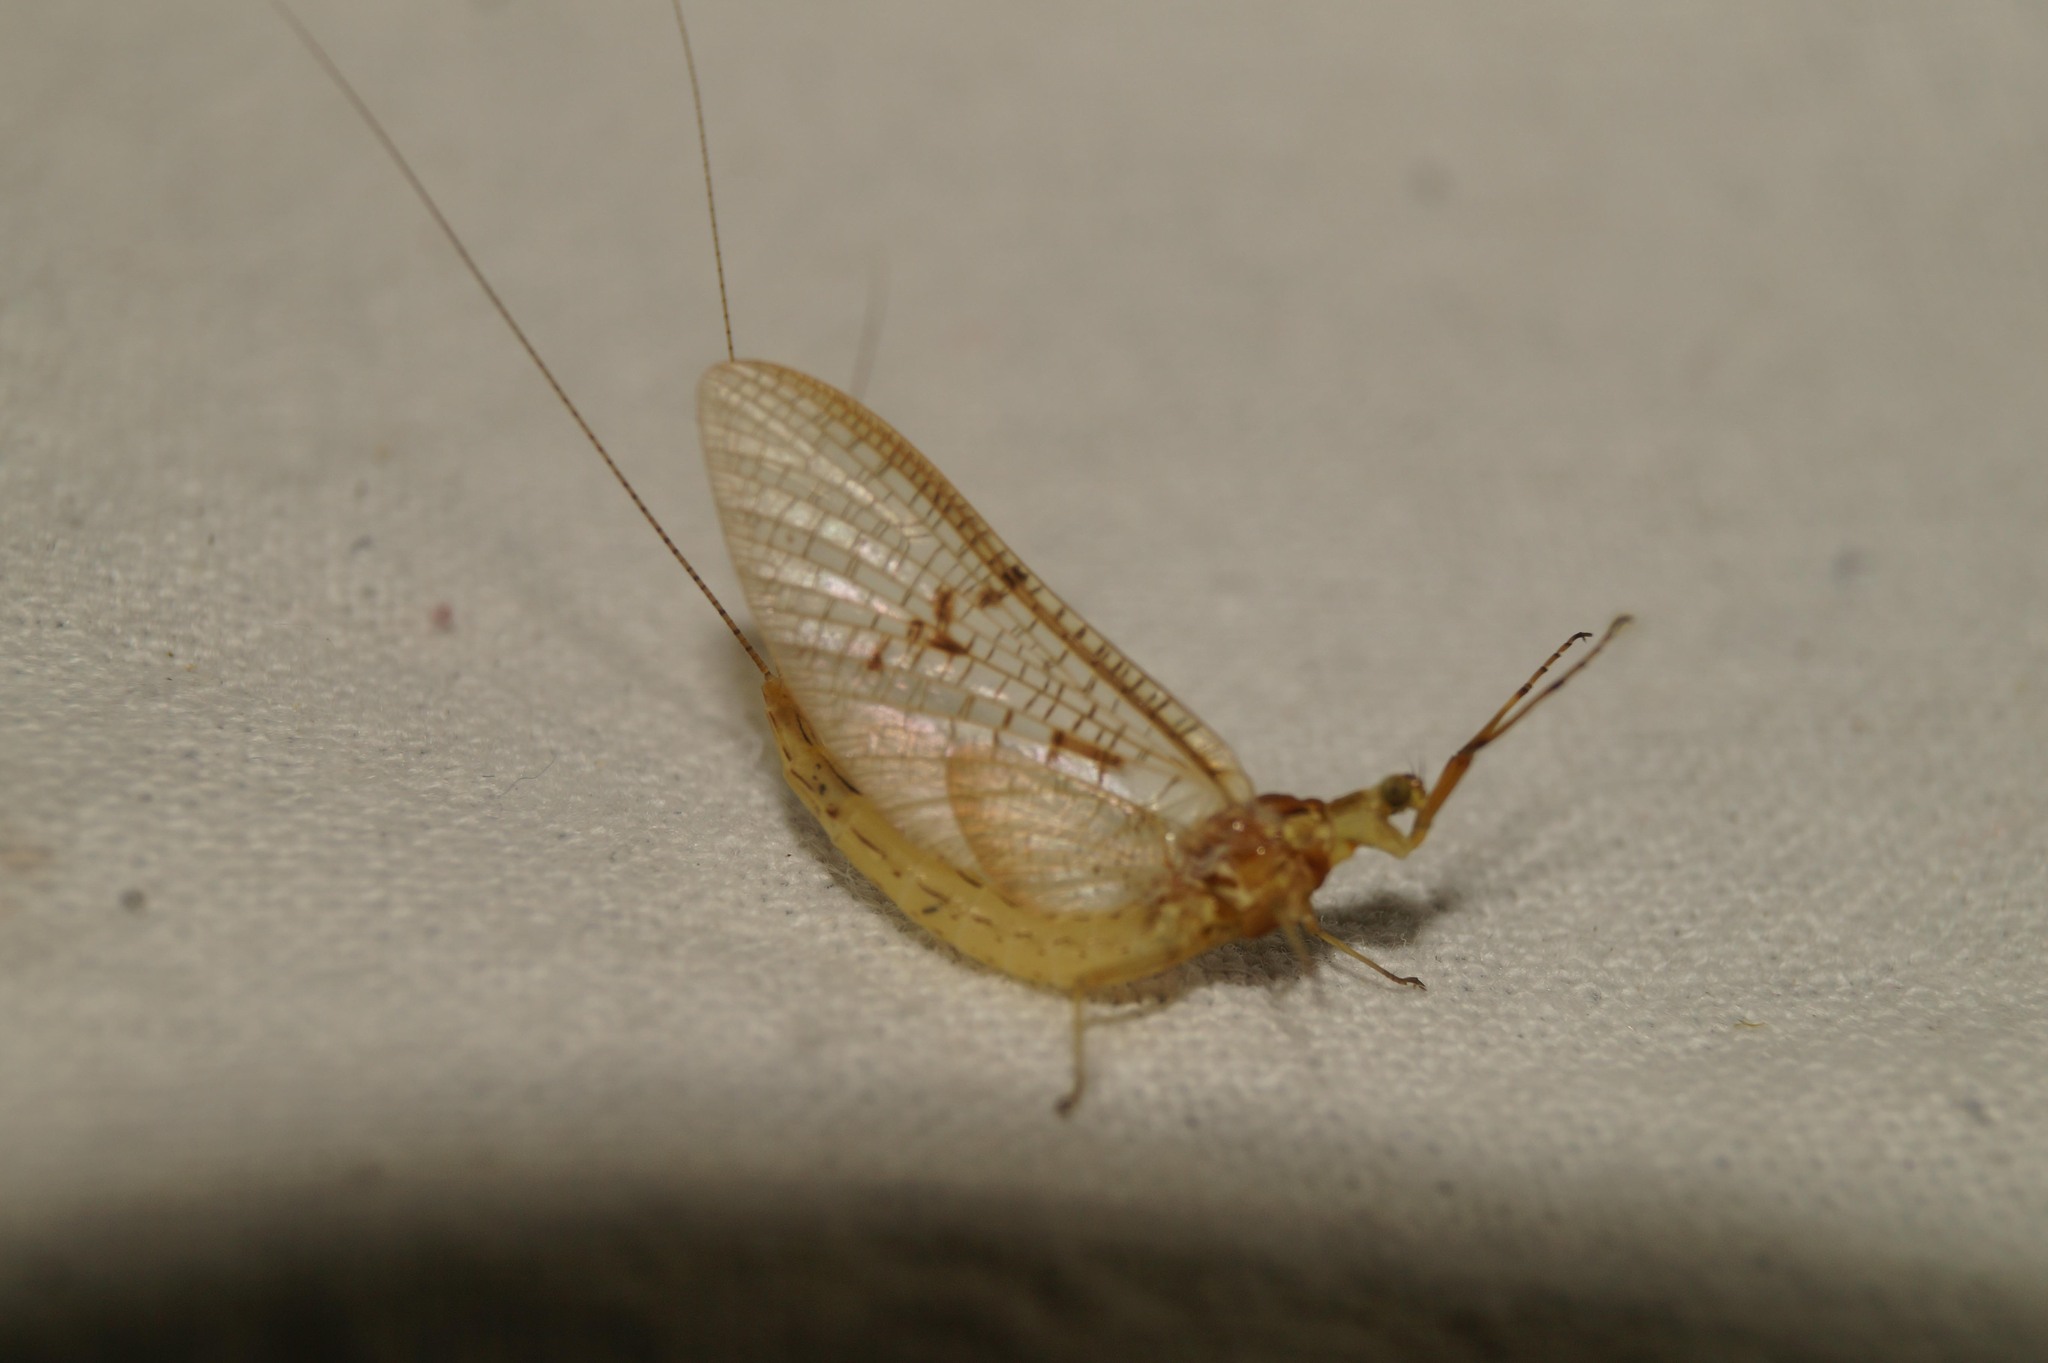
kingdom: Animalia
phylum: Arthropoda
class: Insecta
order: Ephemeroptera
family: Ephemeridae
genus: Ephemera
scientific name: Ephemera glaucops
